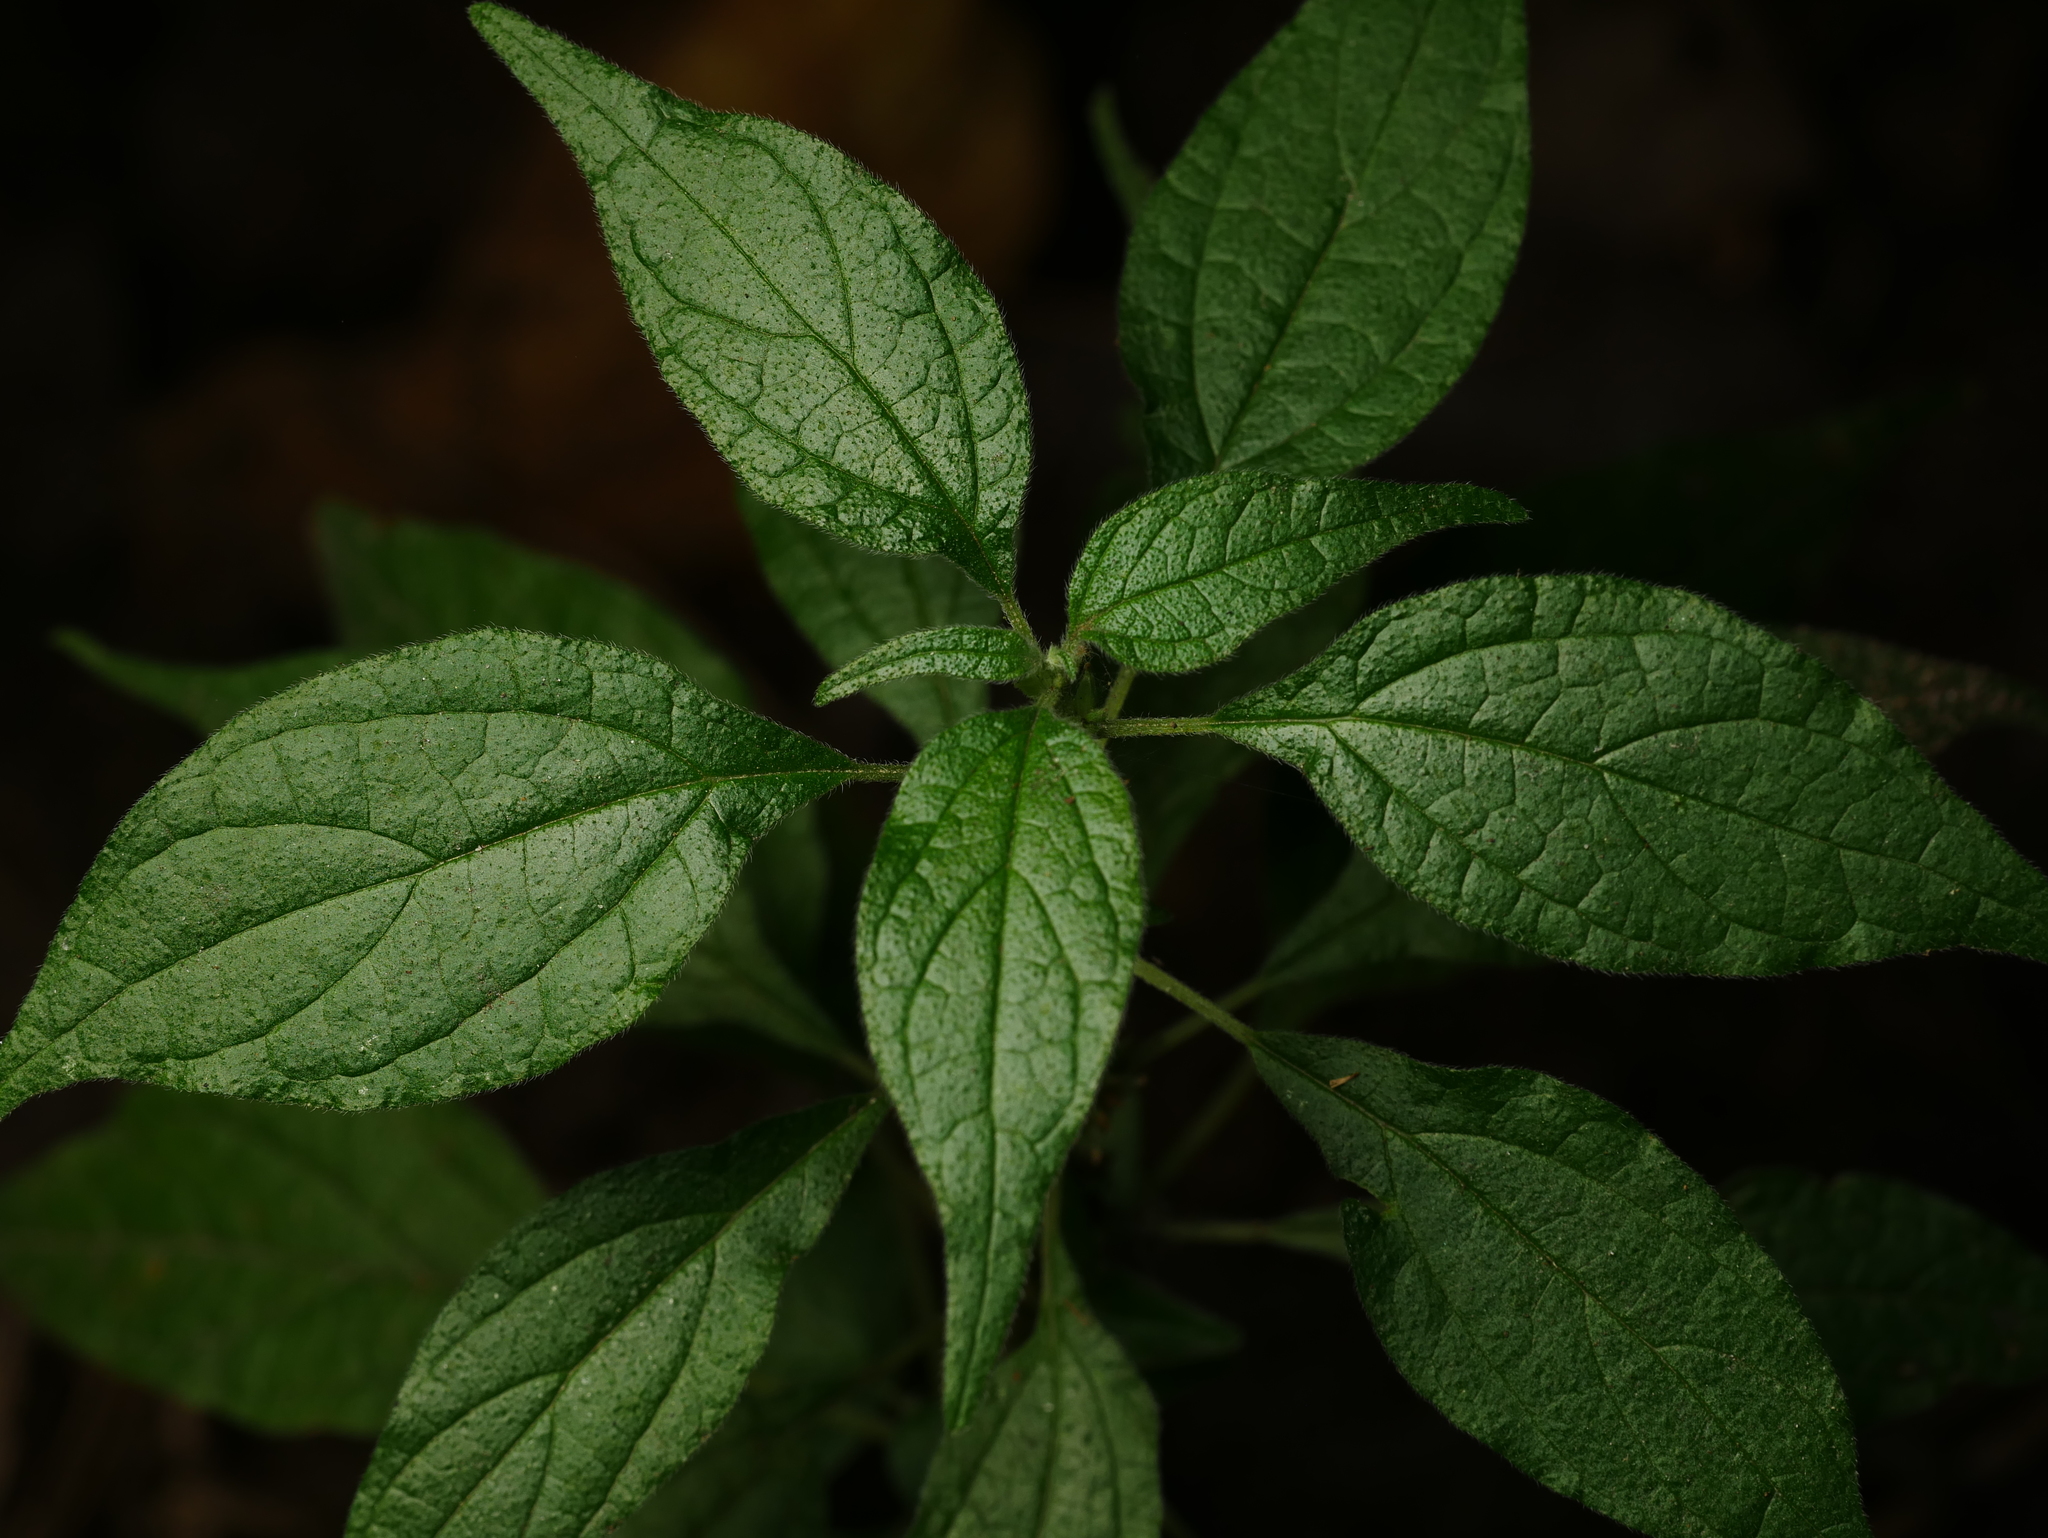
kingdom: Plantae
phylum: Tracheophyta
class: Magnoliopsida
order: Rosales
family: Urticaceae
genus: Parietaria
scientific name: Parietaria officinalis
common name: Eastern pellitory-of-the-wall
